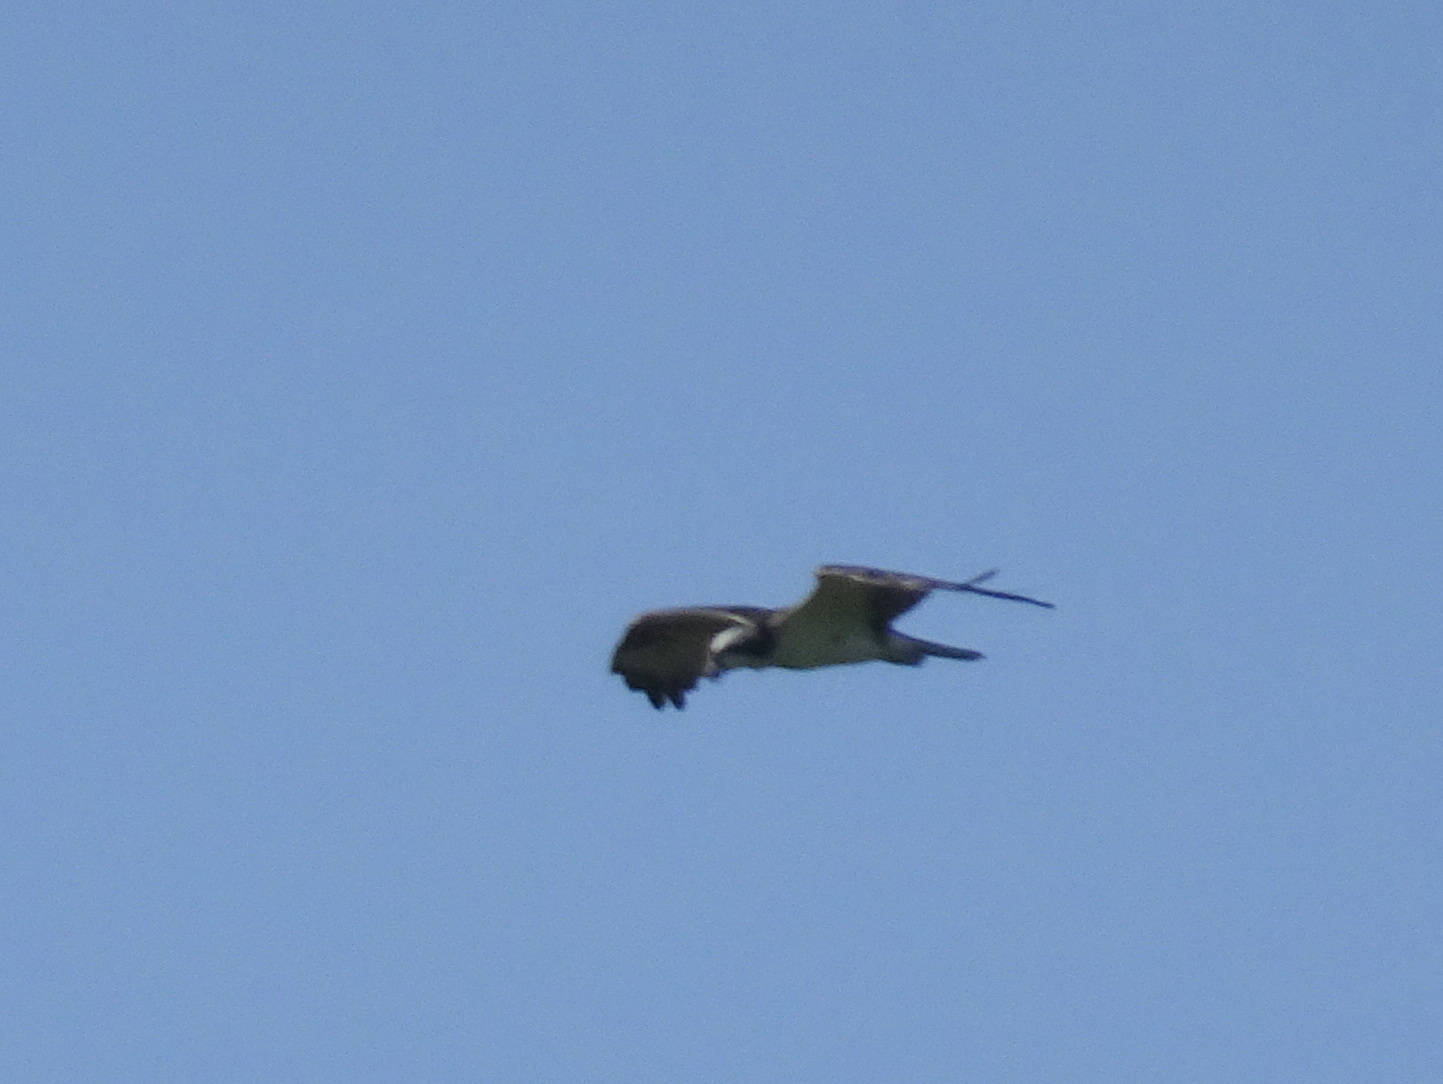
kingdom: Animalia
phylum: Chordata
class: Aves
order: Accipitriformes
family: Pandionidae
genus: Pandion
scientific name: Pandion haliaetus
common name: Osprey
